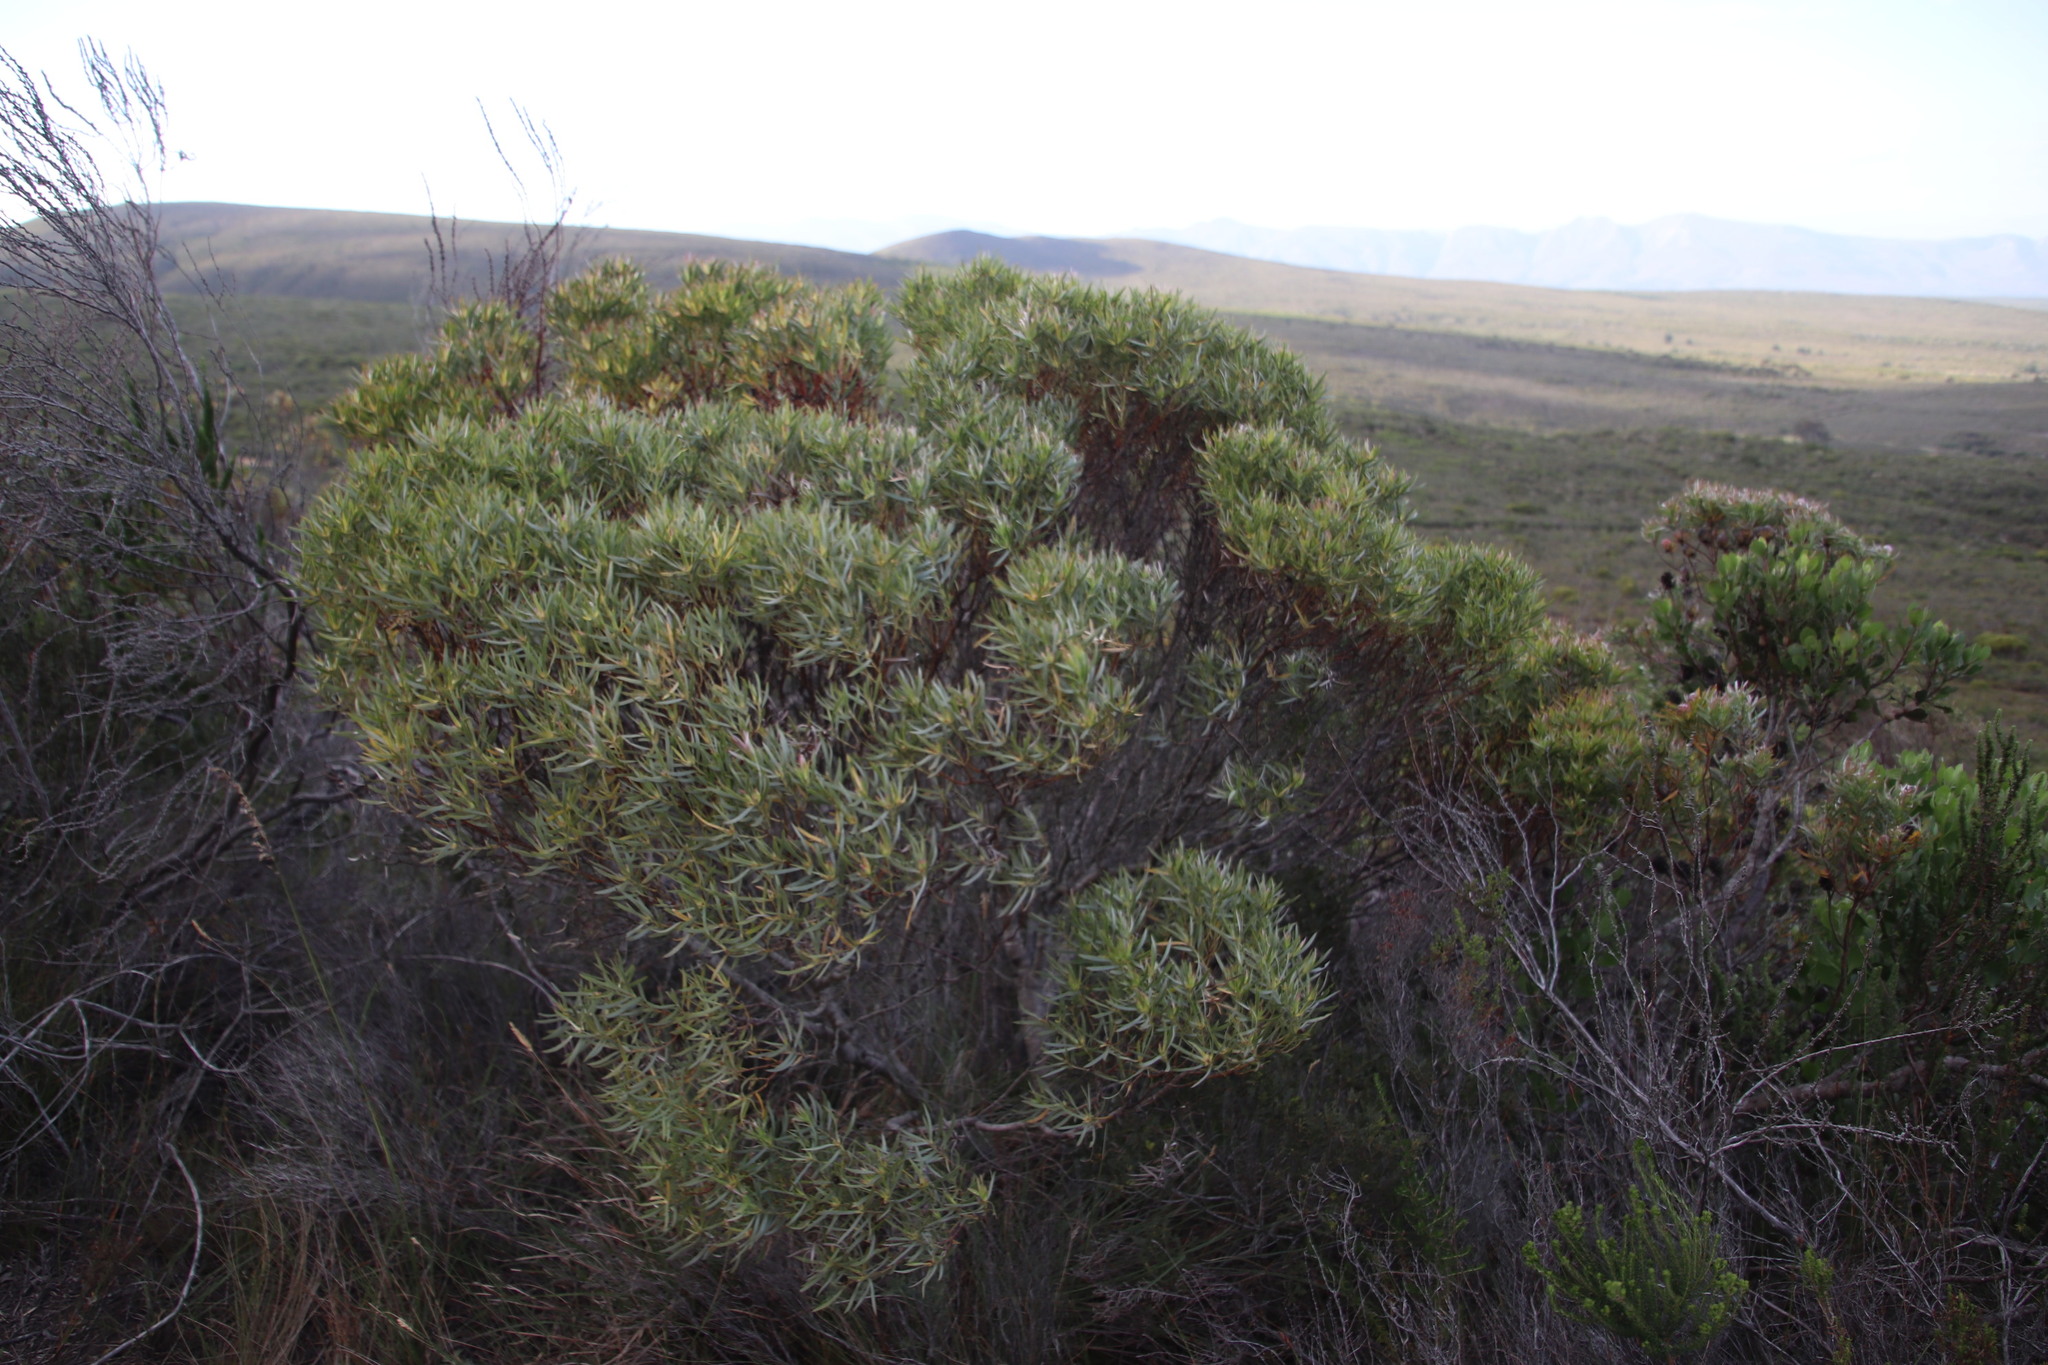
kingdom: Plantae
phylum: Tracheophyta
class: Magnoliopsida
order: Proteales
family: Proteaceae
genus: Leucadendron
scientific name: Leucadendron xanthoconus
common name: Sickle-leaf conebush
